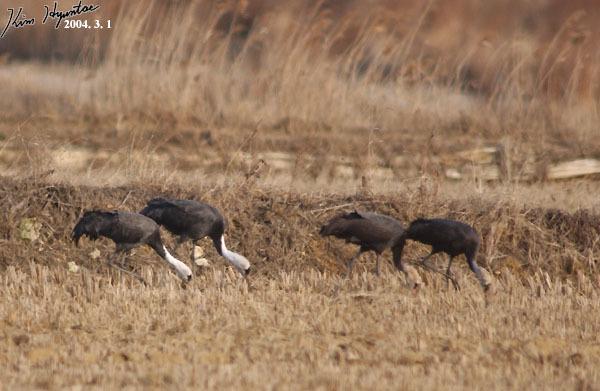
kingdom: Animalia
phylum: Chordata
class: Aves
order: Gruiformes
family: Gruidae
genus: Grus
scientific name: Grus monacha
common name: Hooded crane
